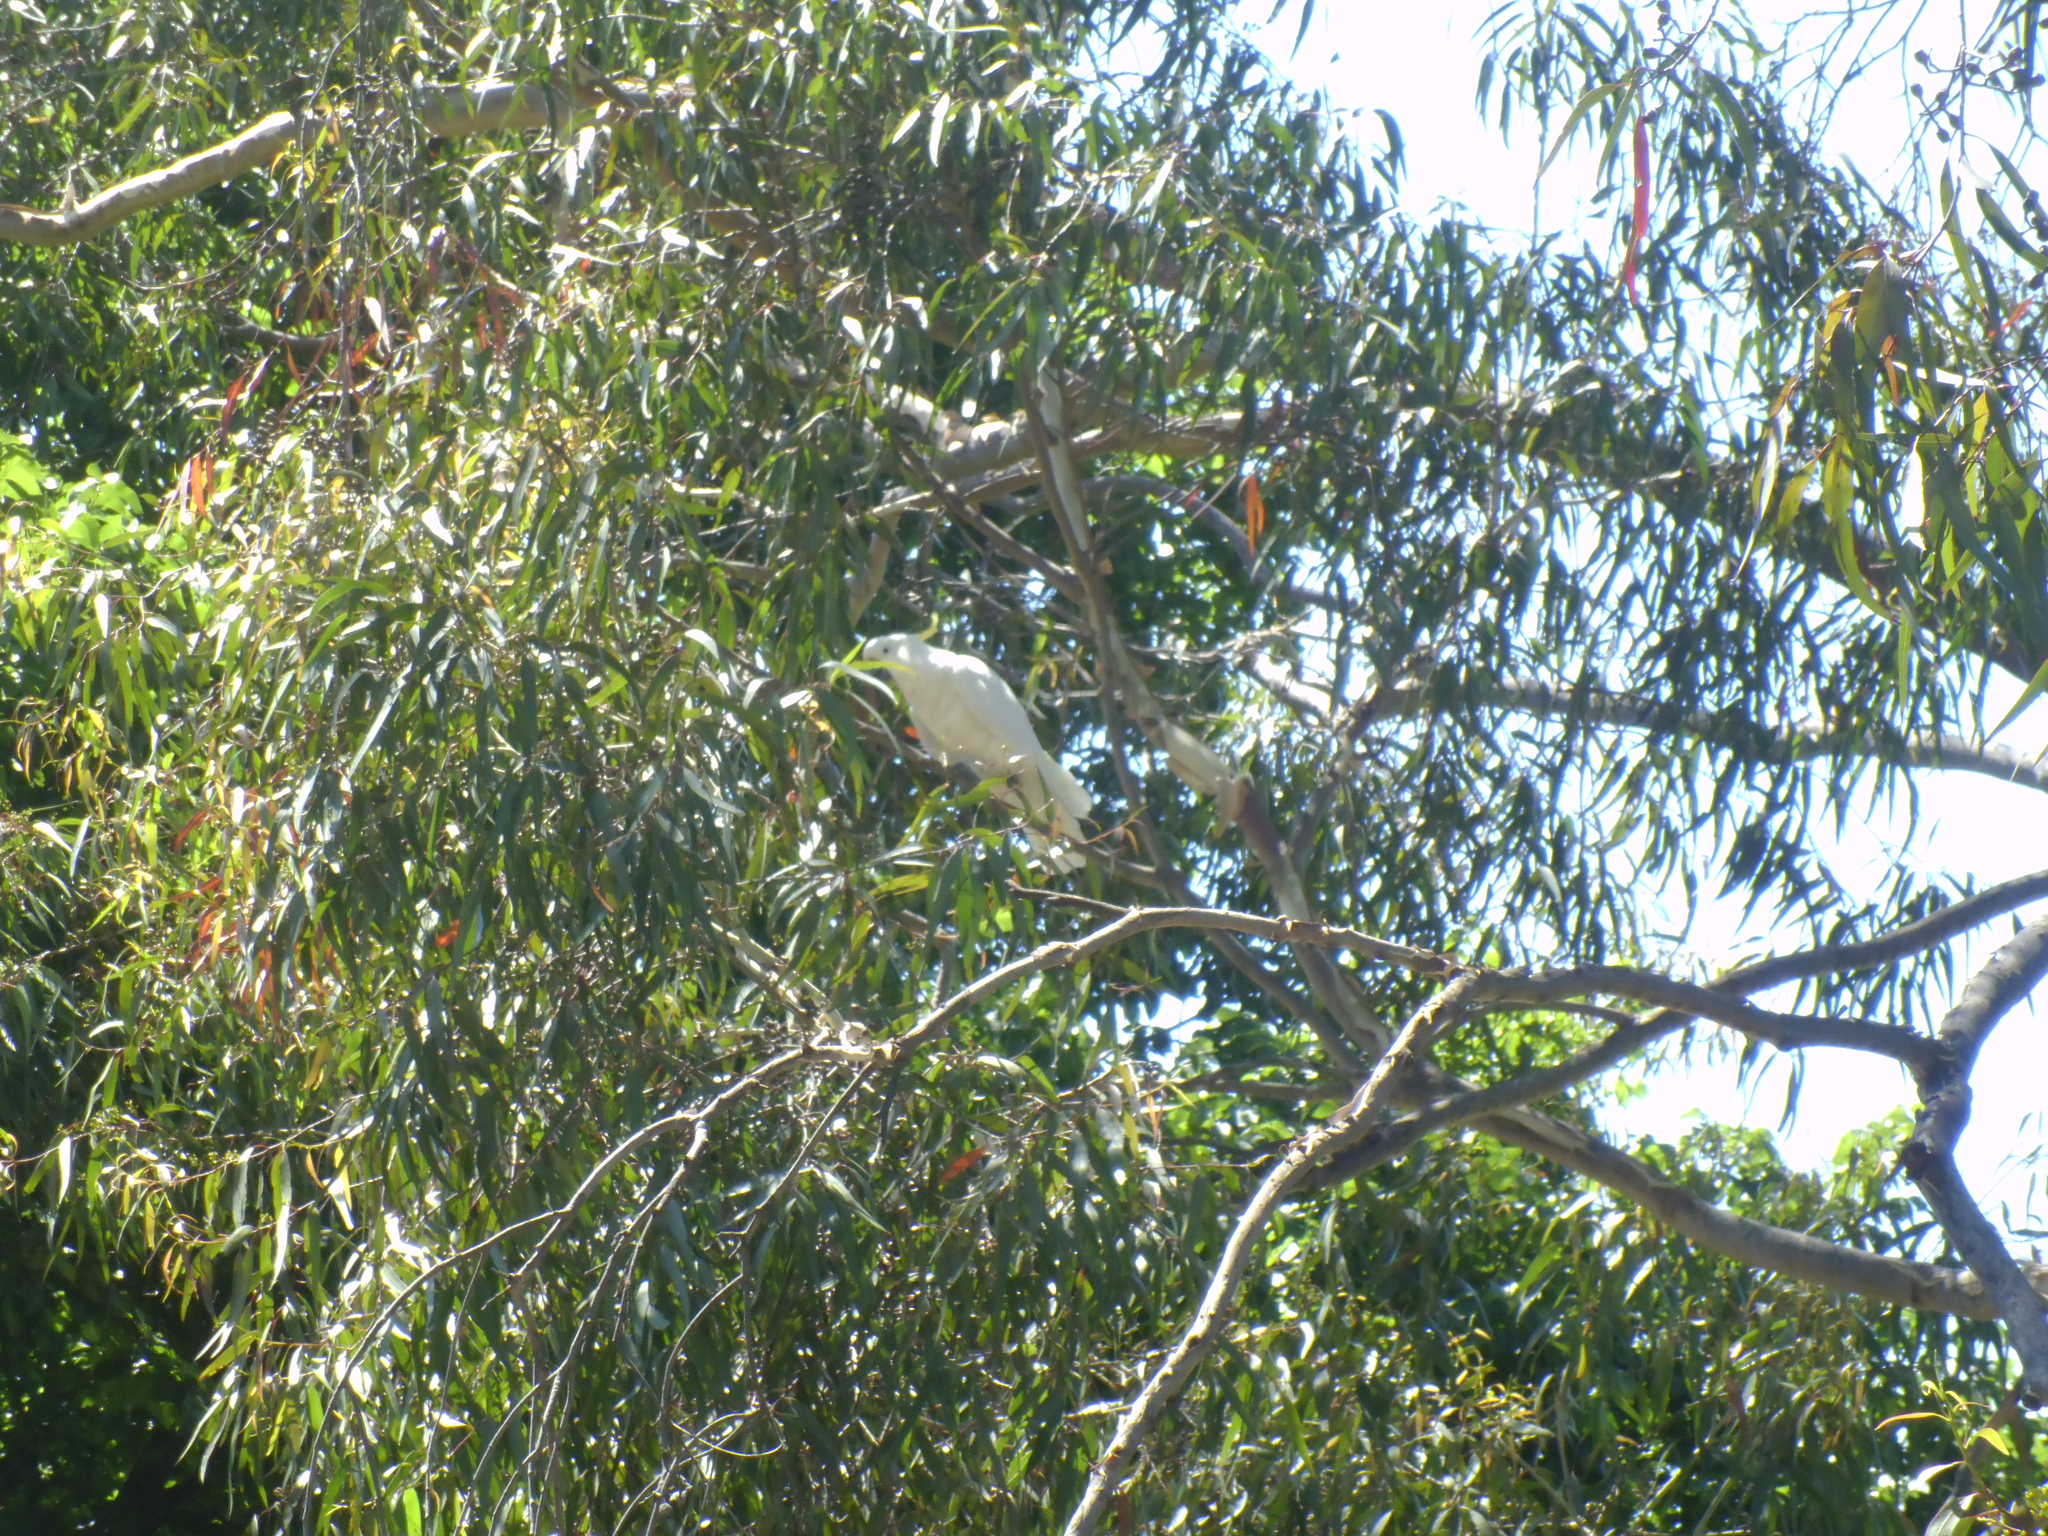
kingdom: Animalia
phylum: Chordata
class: Aves
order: Psittaciformes
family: Psittacidae
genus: Cacatua
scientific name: Cacatua galerita
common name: Sulphur-crested cockatoo
